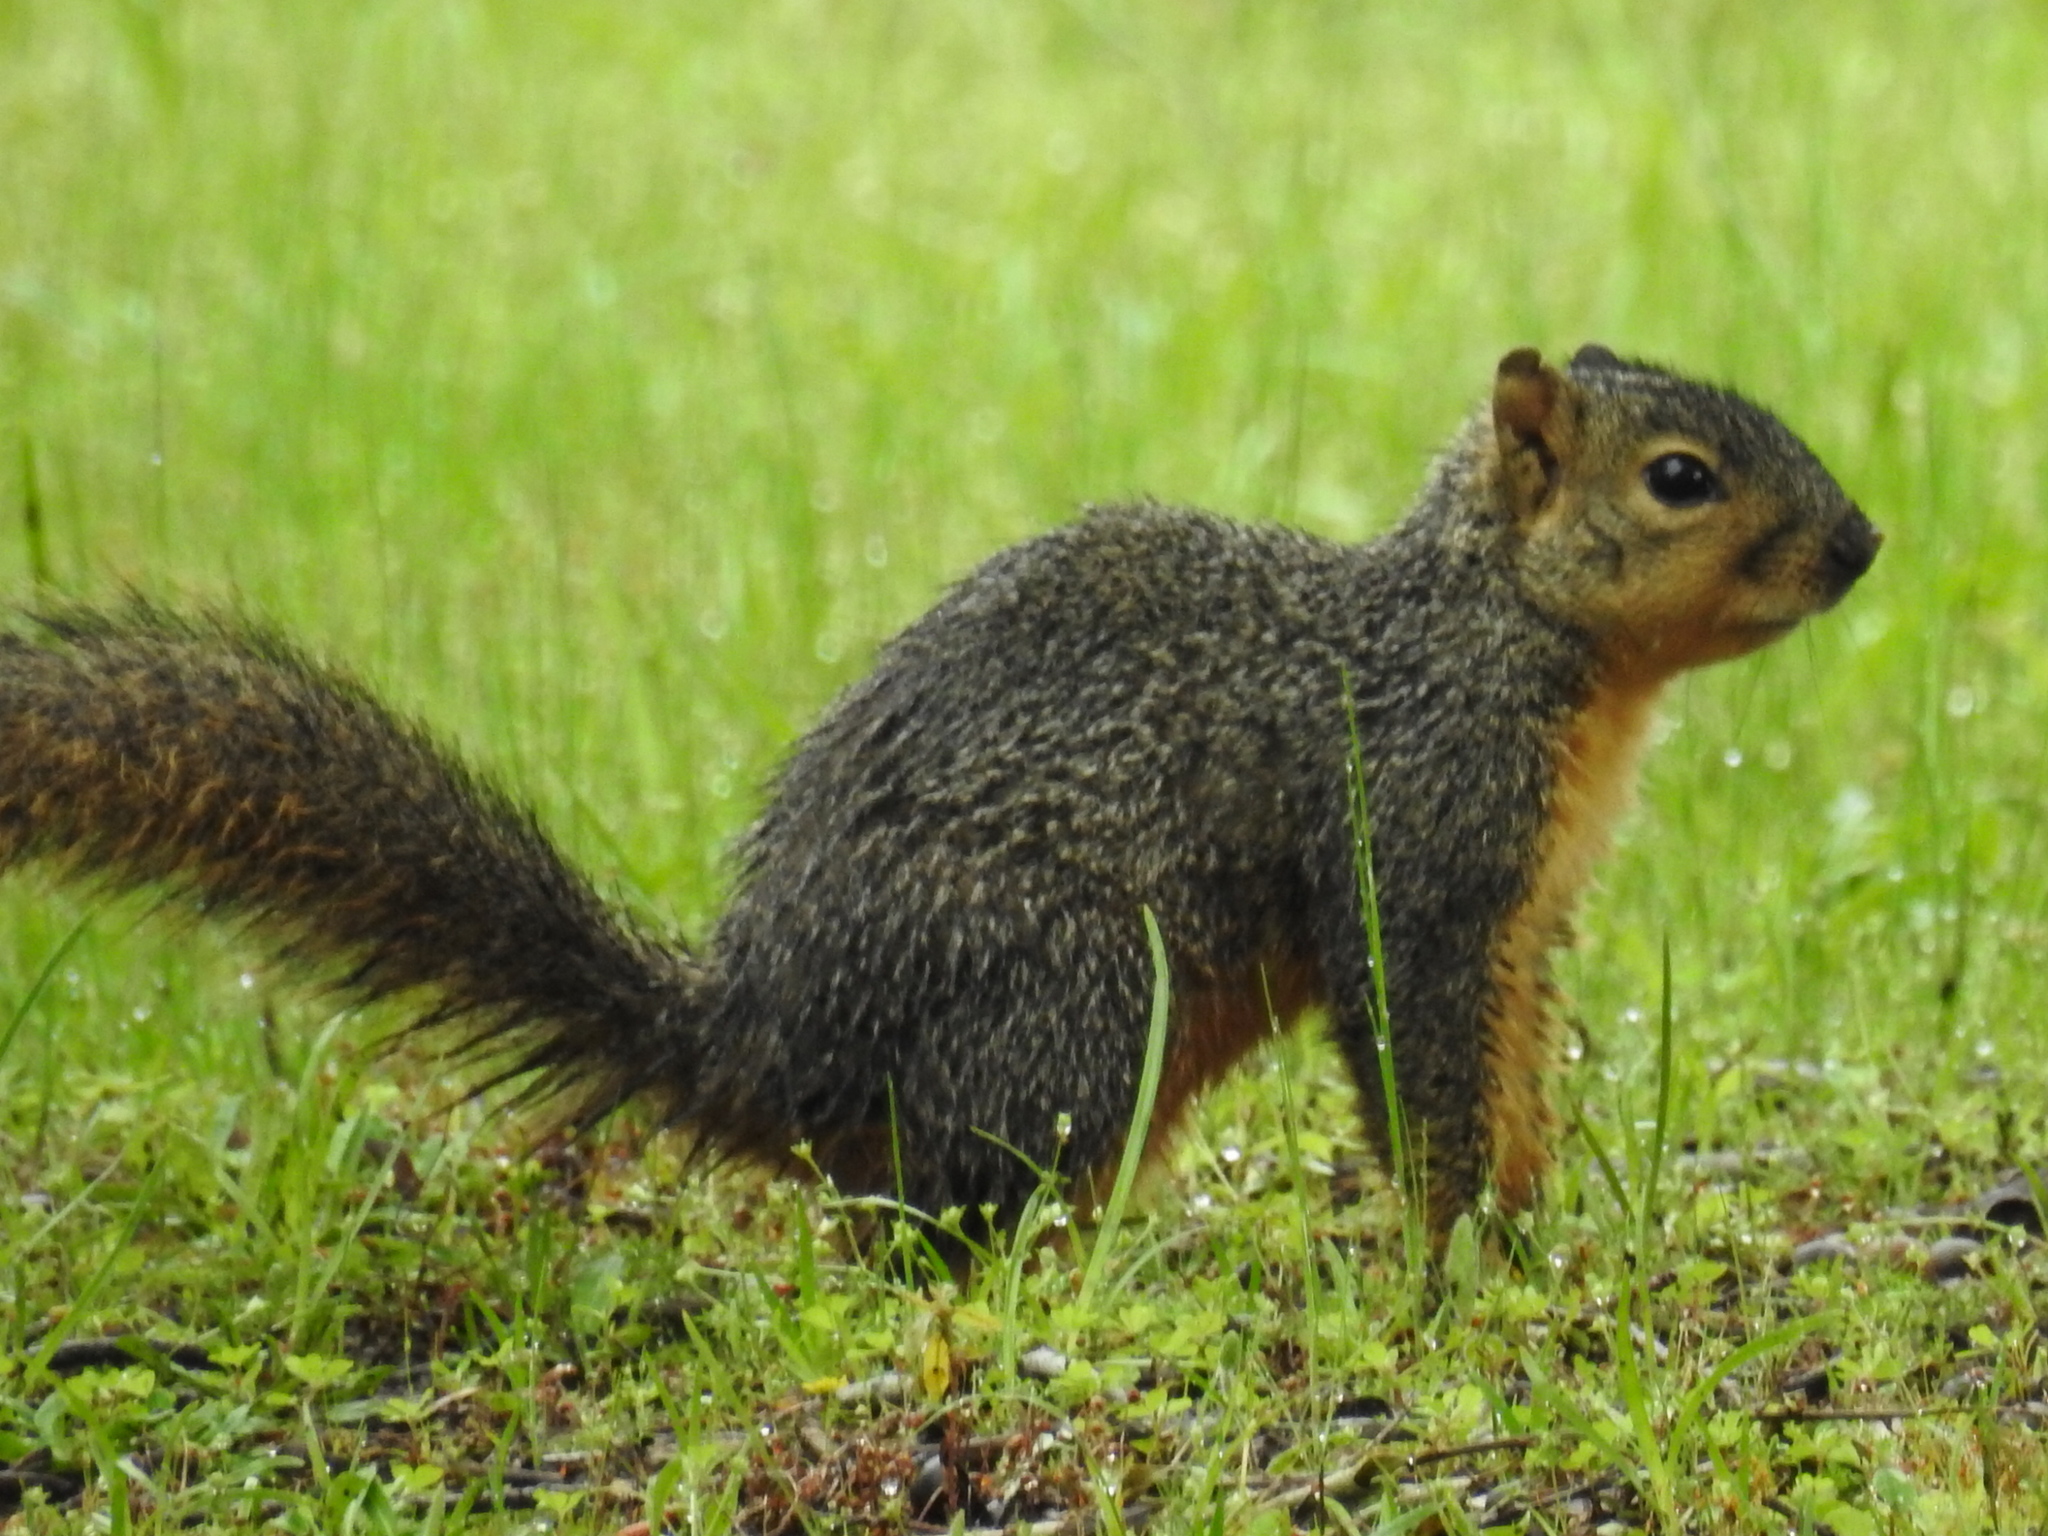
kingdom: Animalia
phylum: Chordata
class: Mammalia
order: Rodentia
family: Sciuridae
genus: Sciurus
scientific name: Sciurus niger
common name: Fox squirrel
